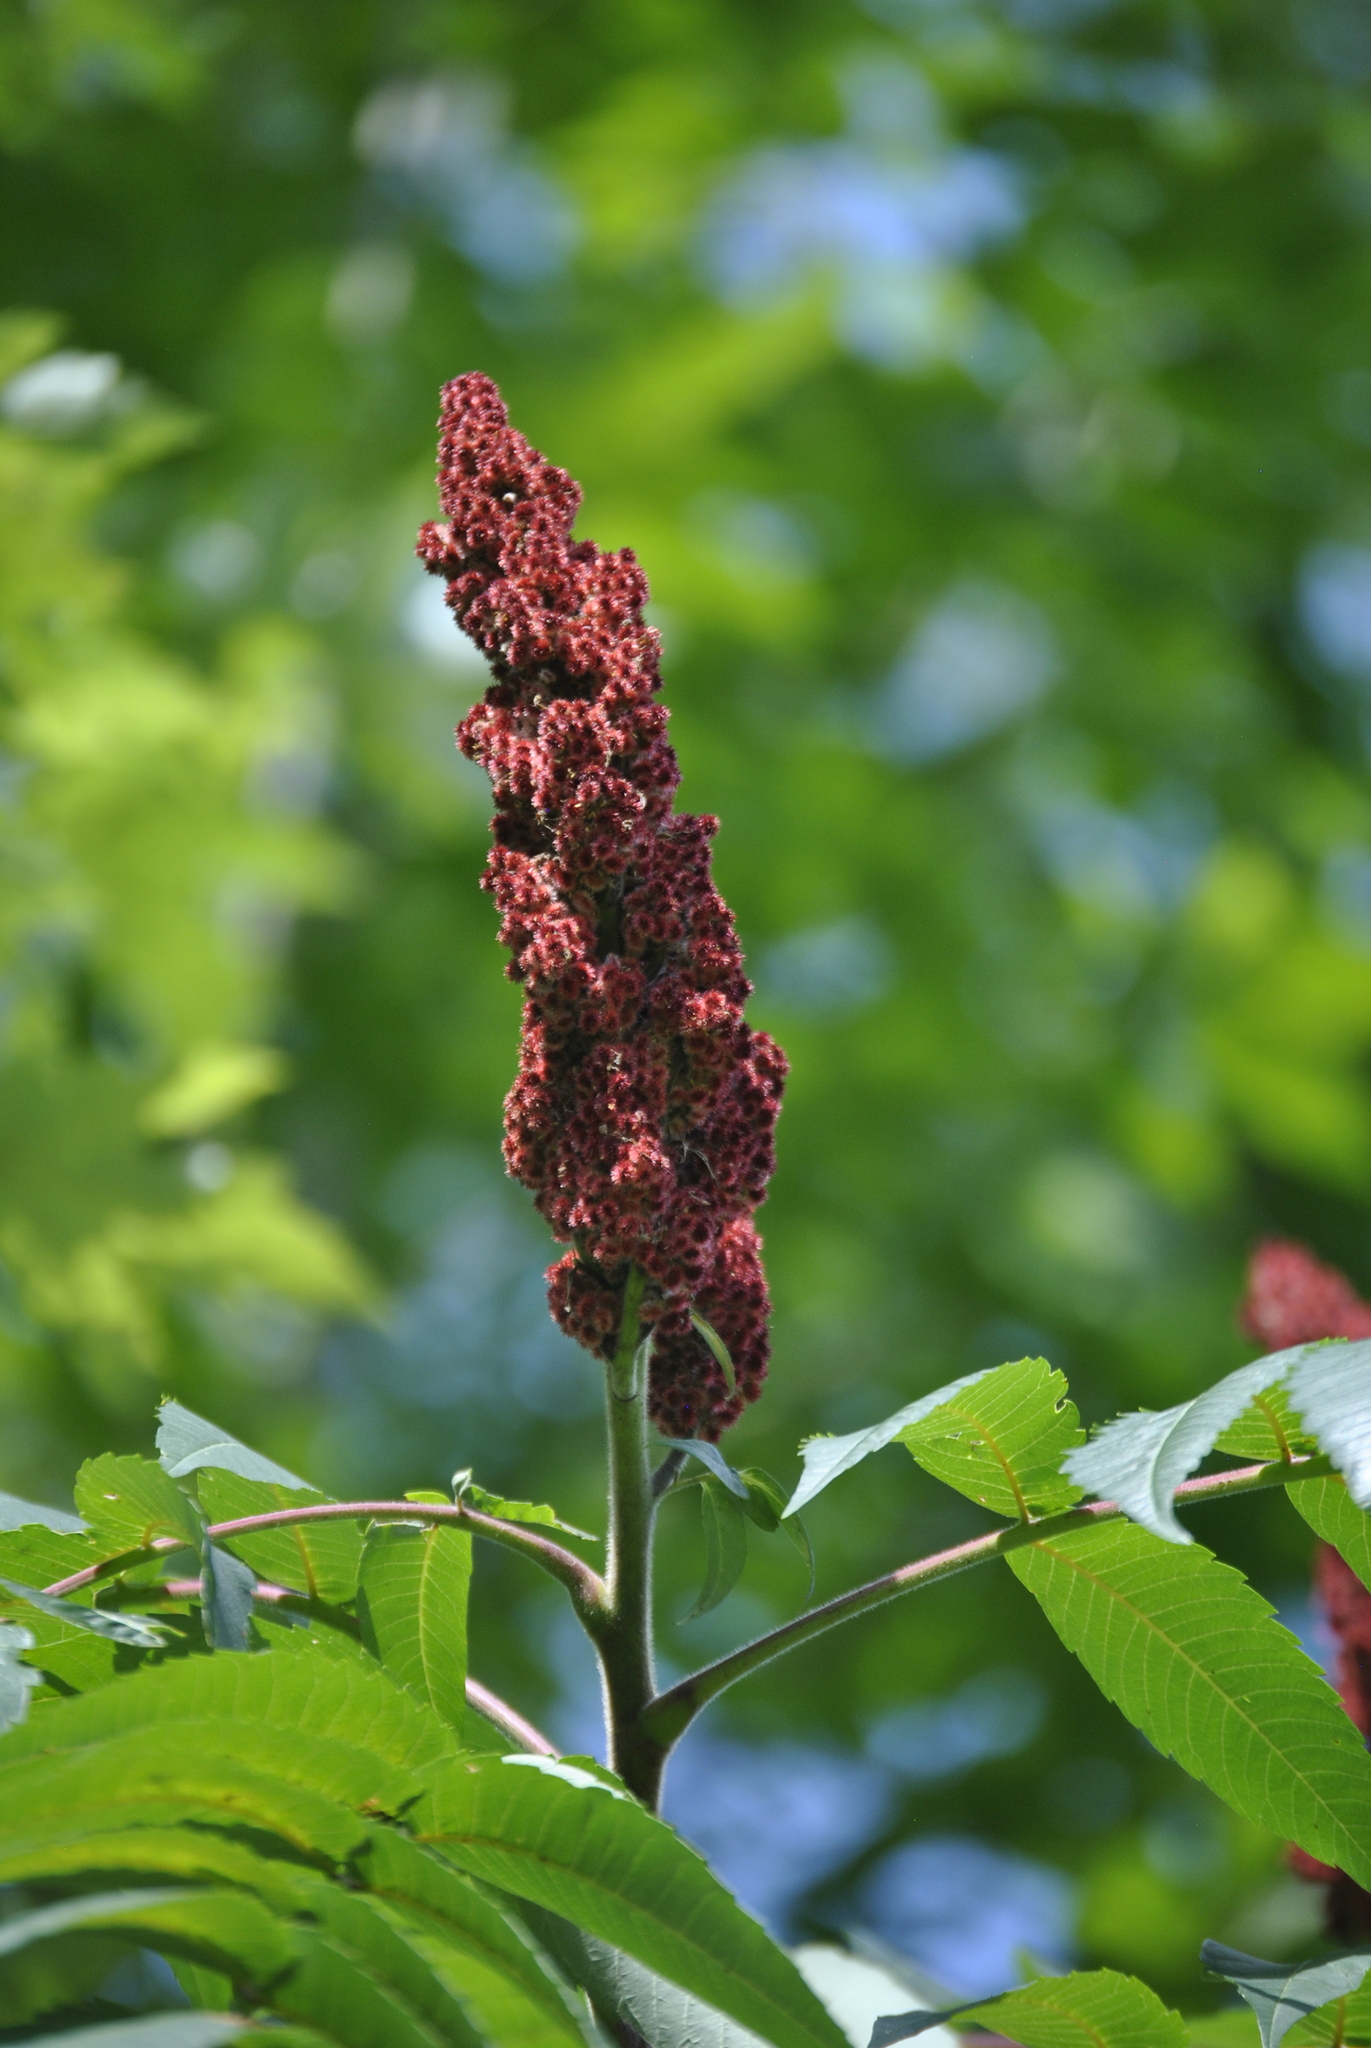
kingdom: Plantae
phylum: Tracheophyta
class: Magnoliopsida
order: Sapindales
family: Anacardiaceae
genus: Rhus
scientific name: Rhus typhina
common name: Staghorn sumac
